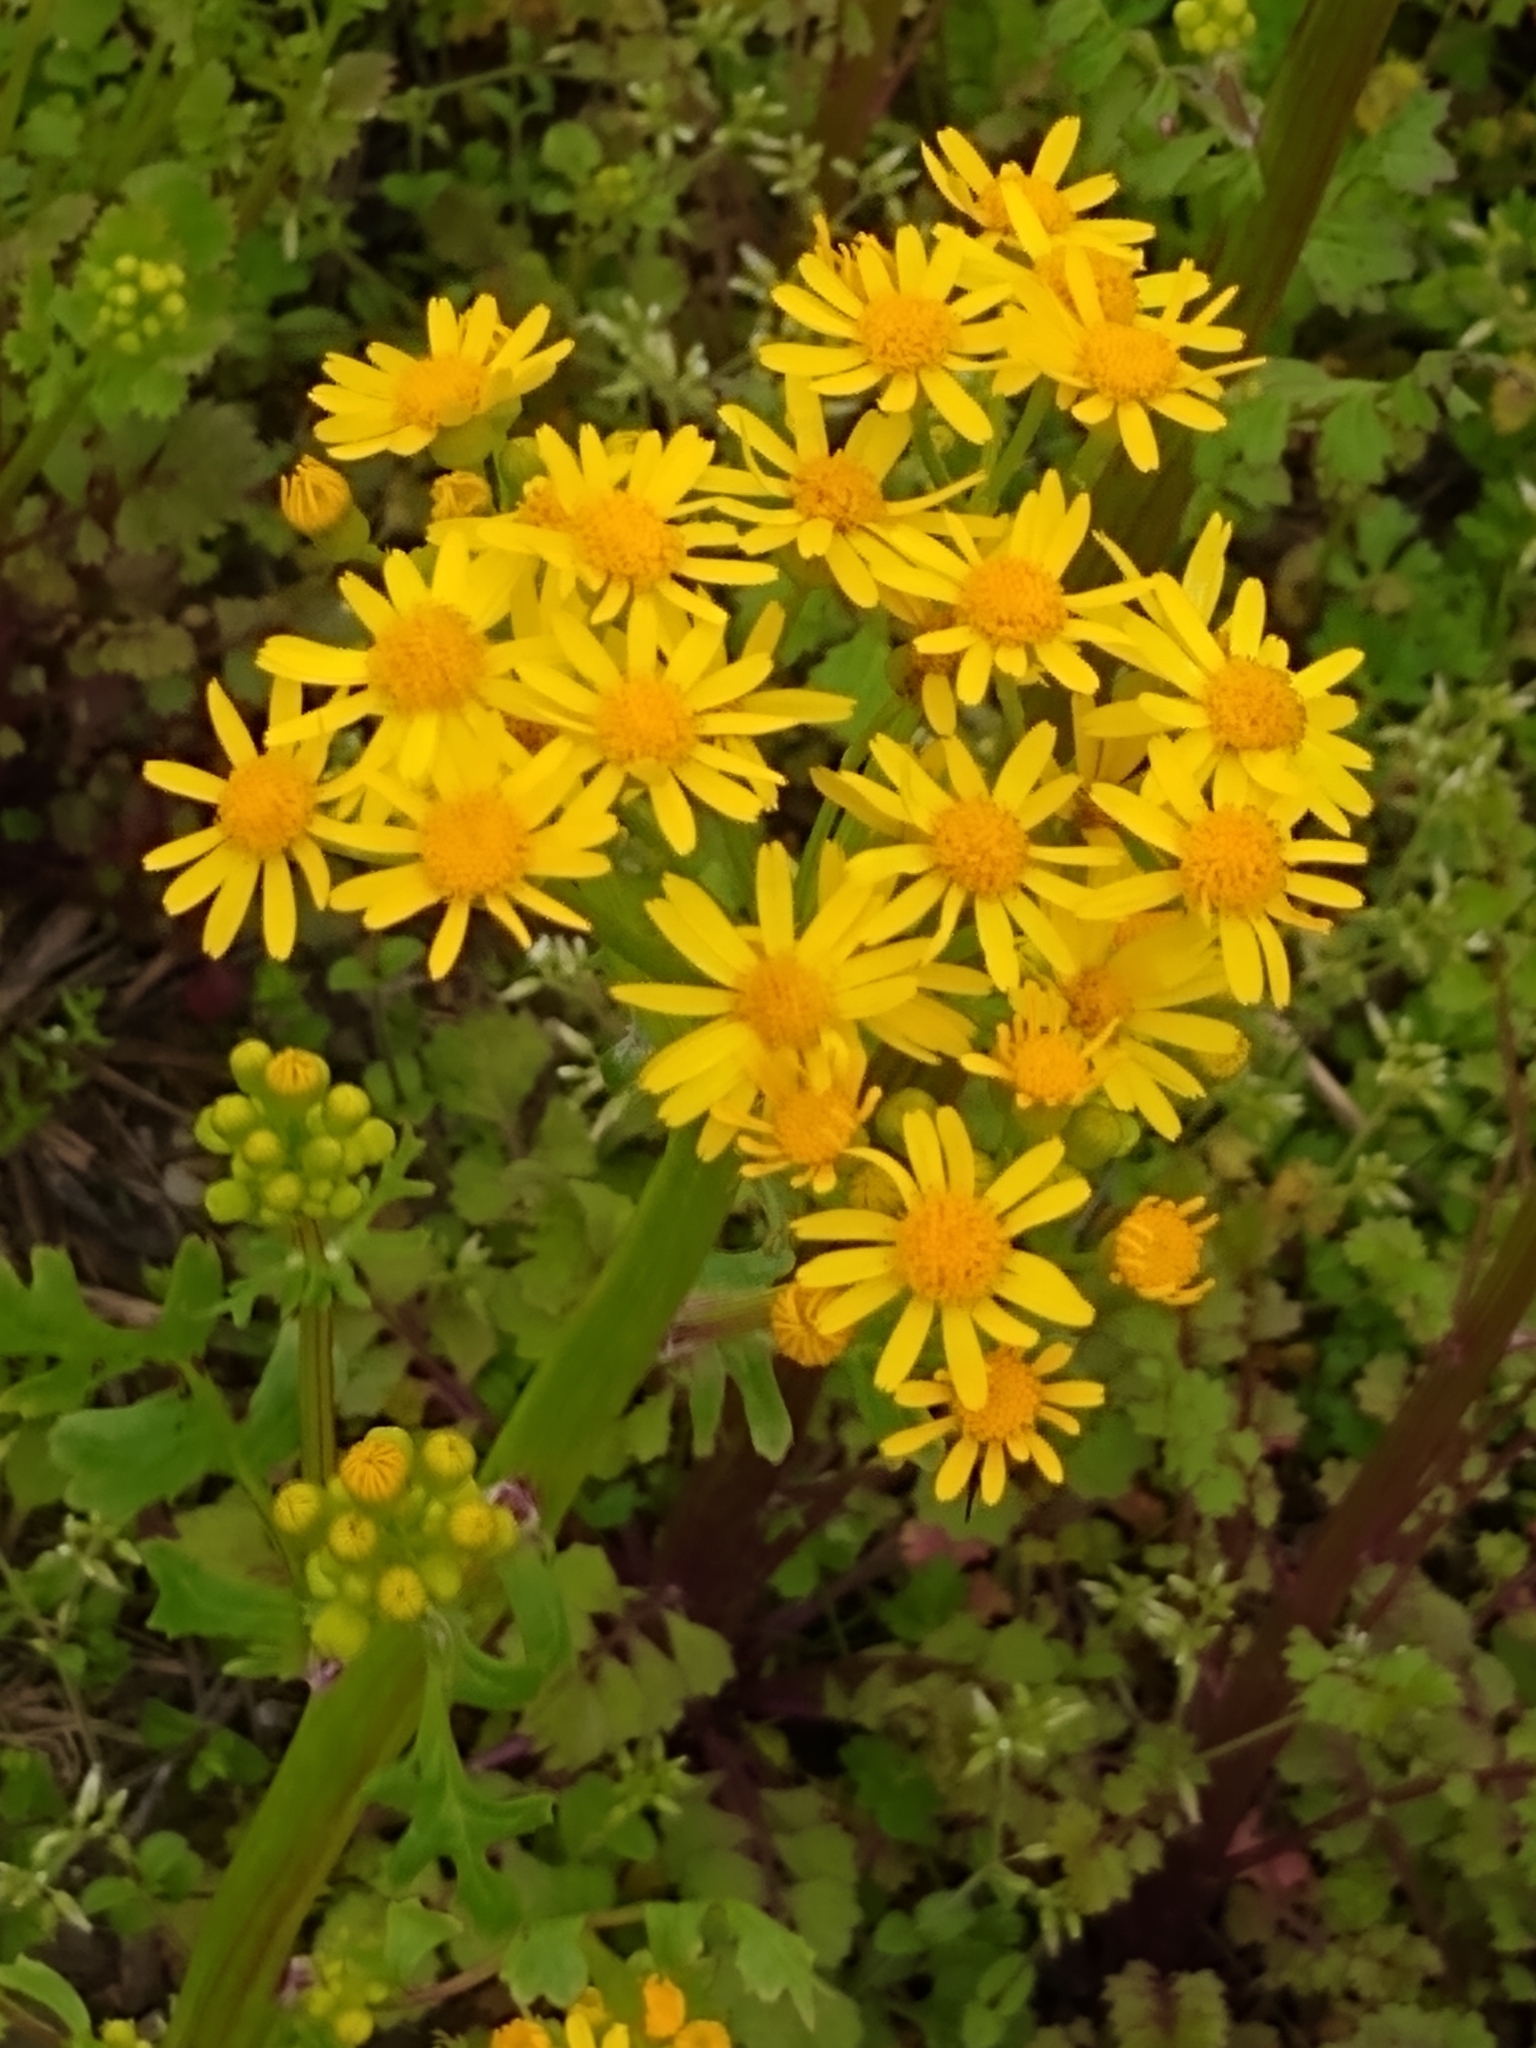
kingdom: Plantae
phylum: Tracheophyta
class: Magnoliopsida
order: Asterales
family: Asteraceae
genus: Packera
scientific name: Packera glabella
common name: Butterweed
